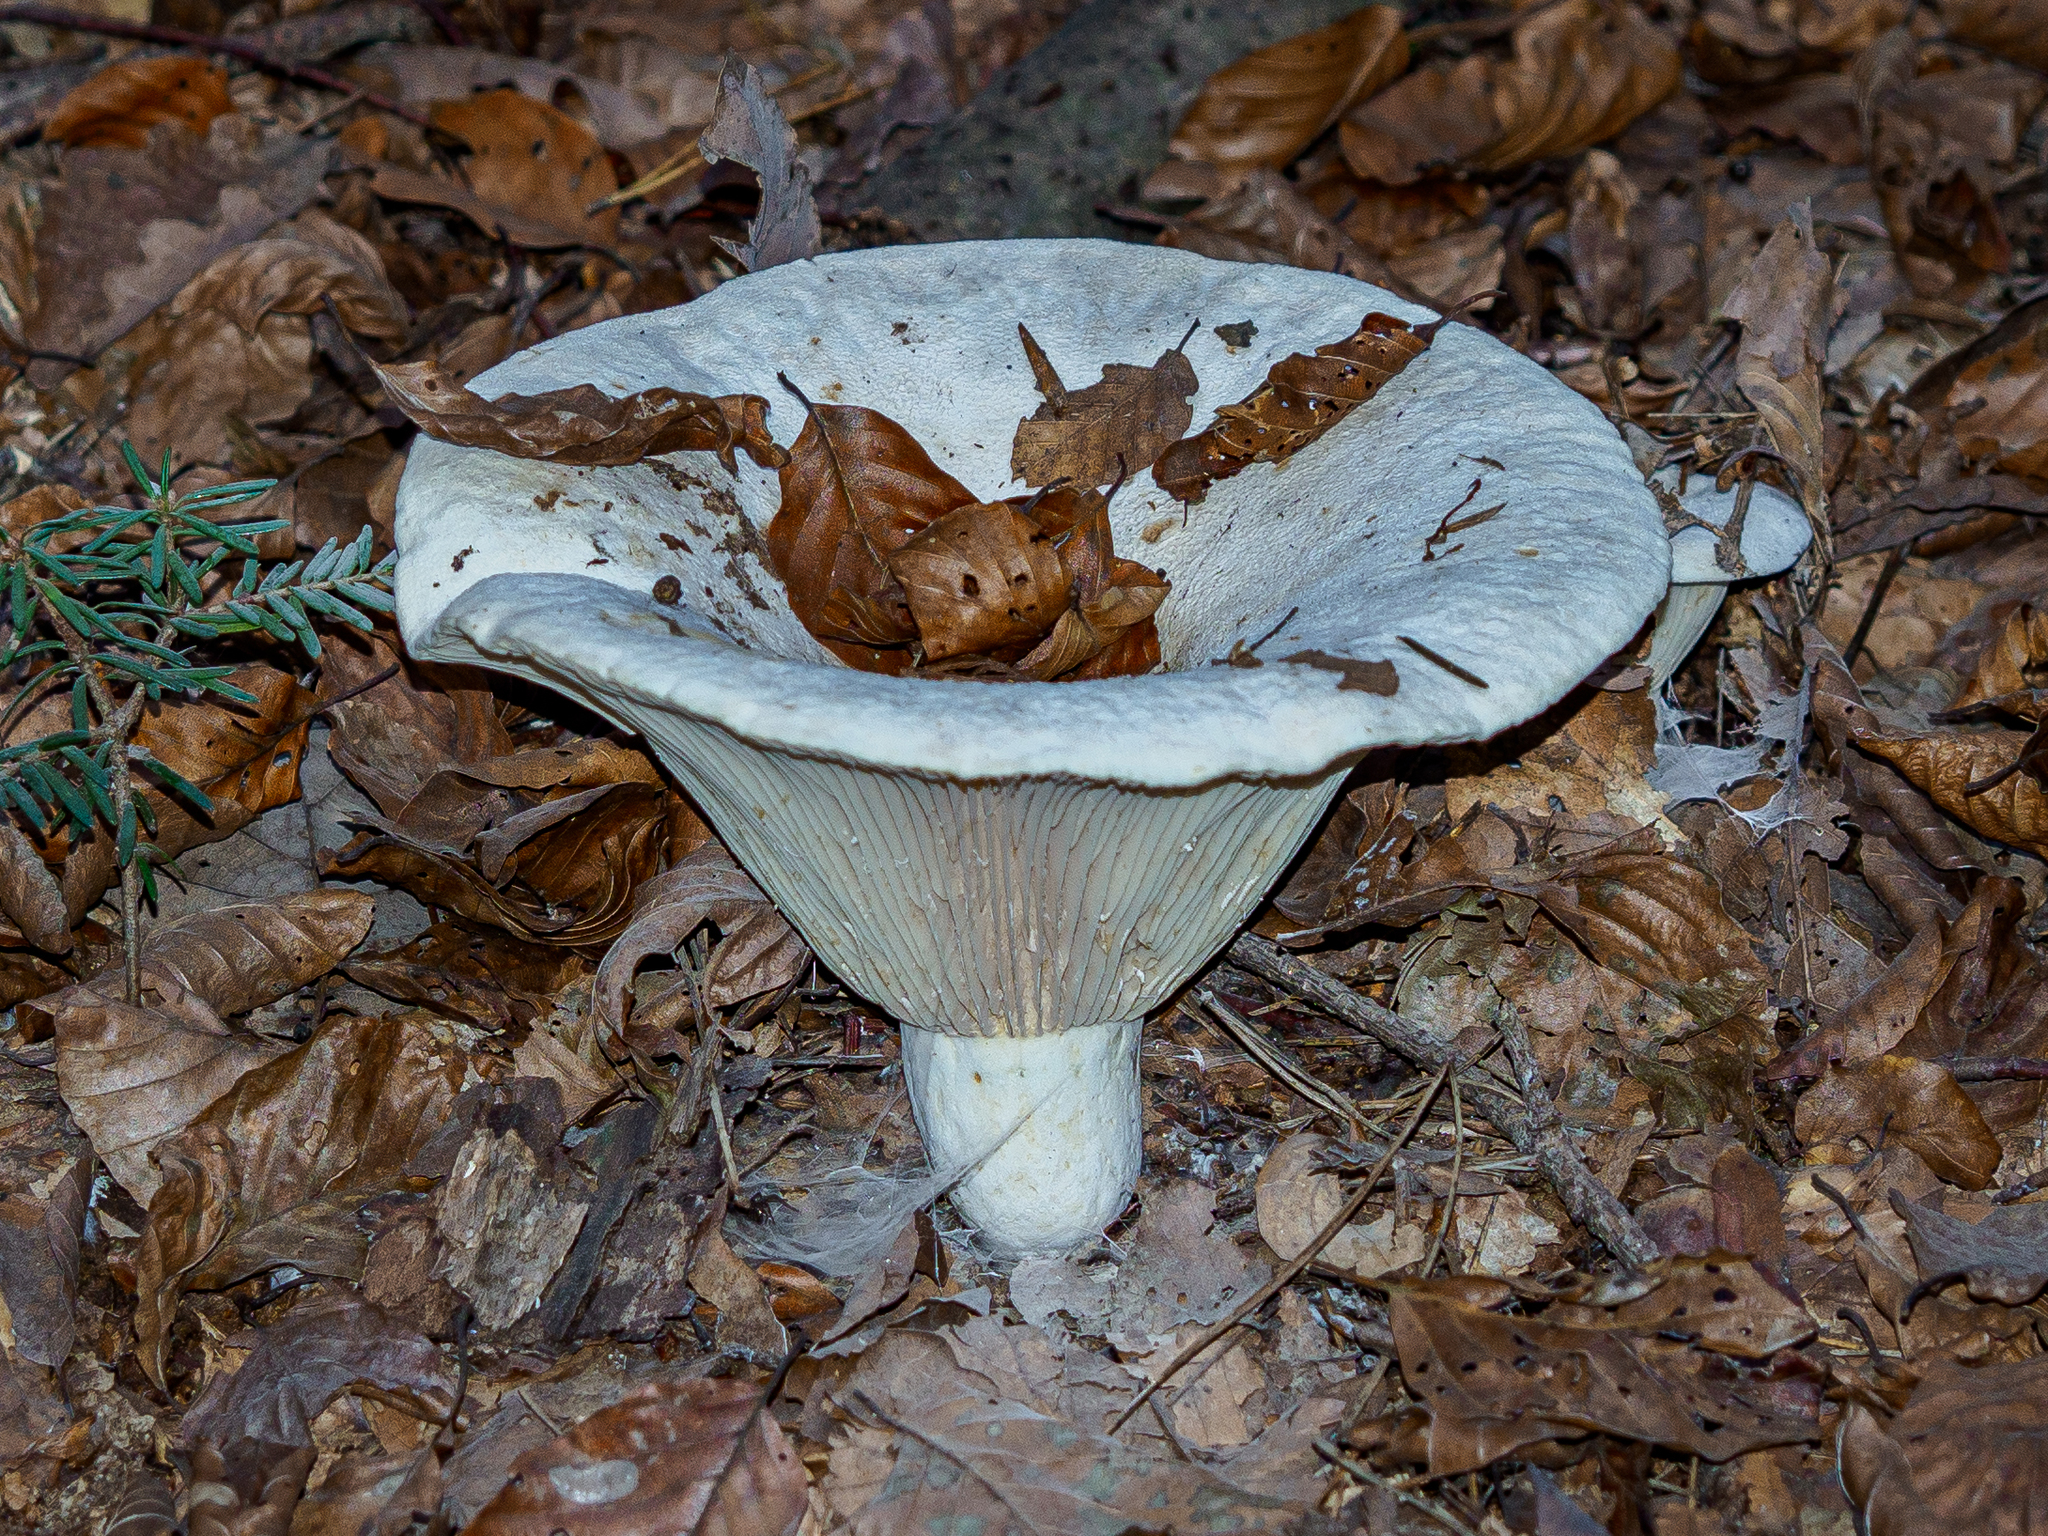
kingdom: Fungi
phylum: Basidiomycota
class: Agaricomycetes
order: Russulales
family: Russulaceae
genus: Lactifluus
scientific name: Lactifluus vellereus
